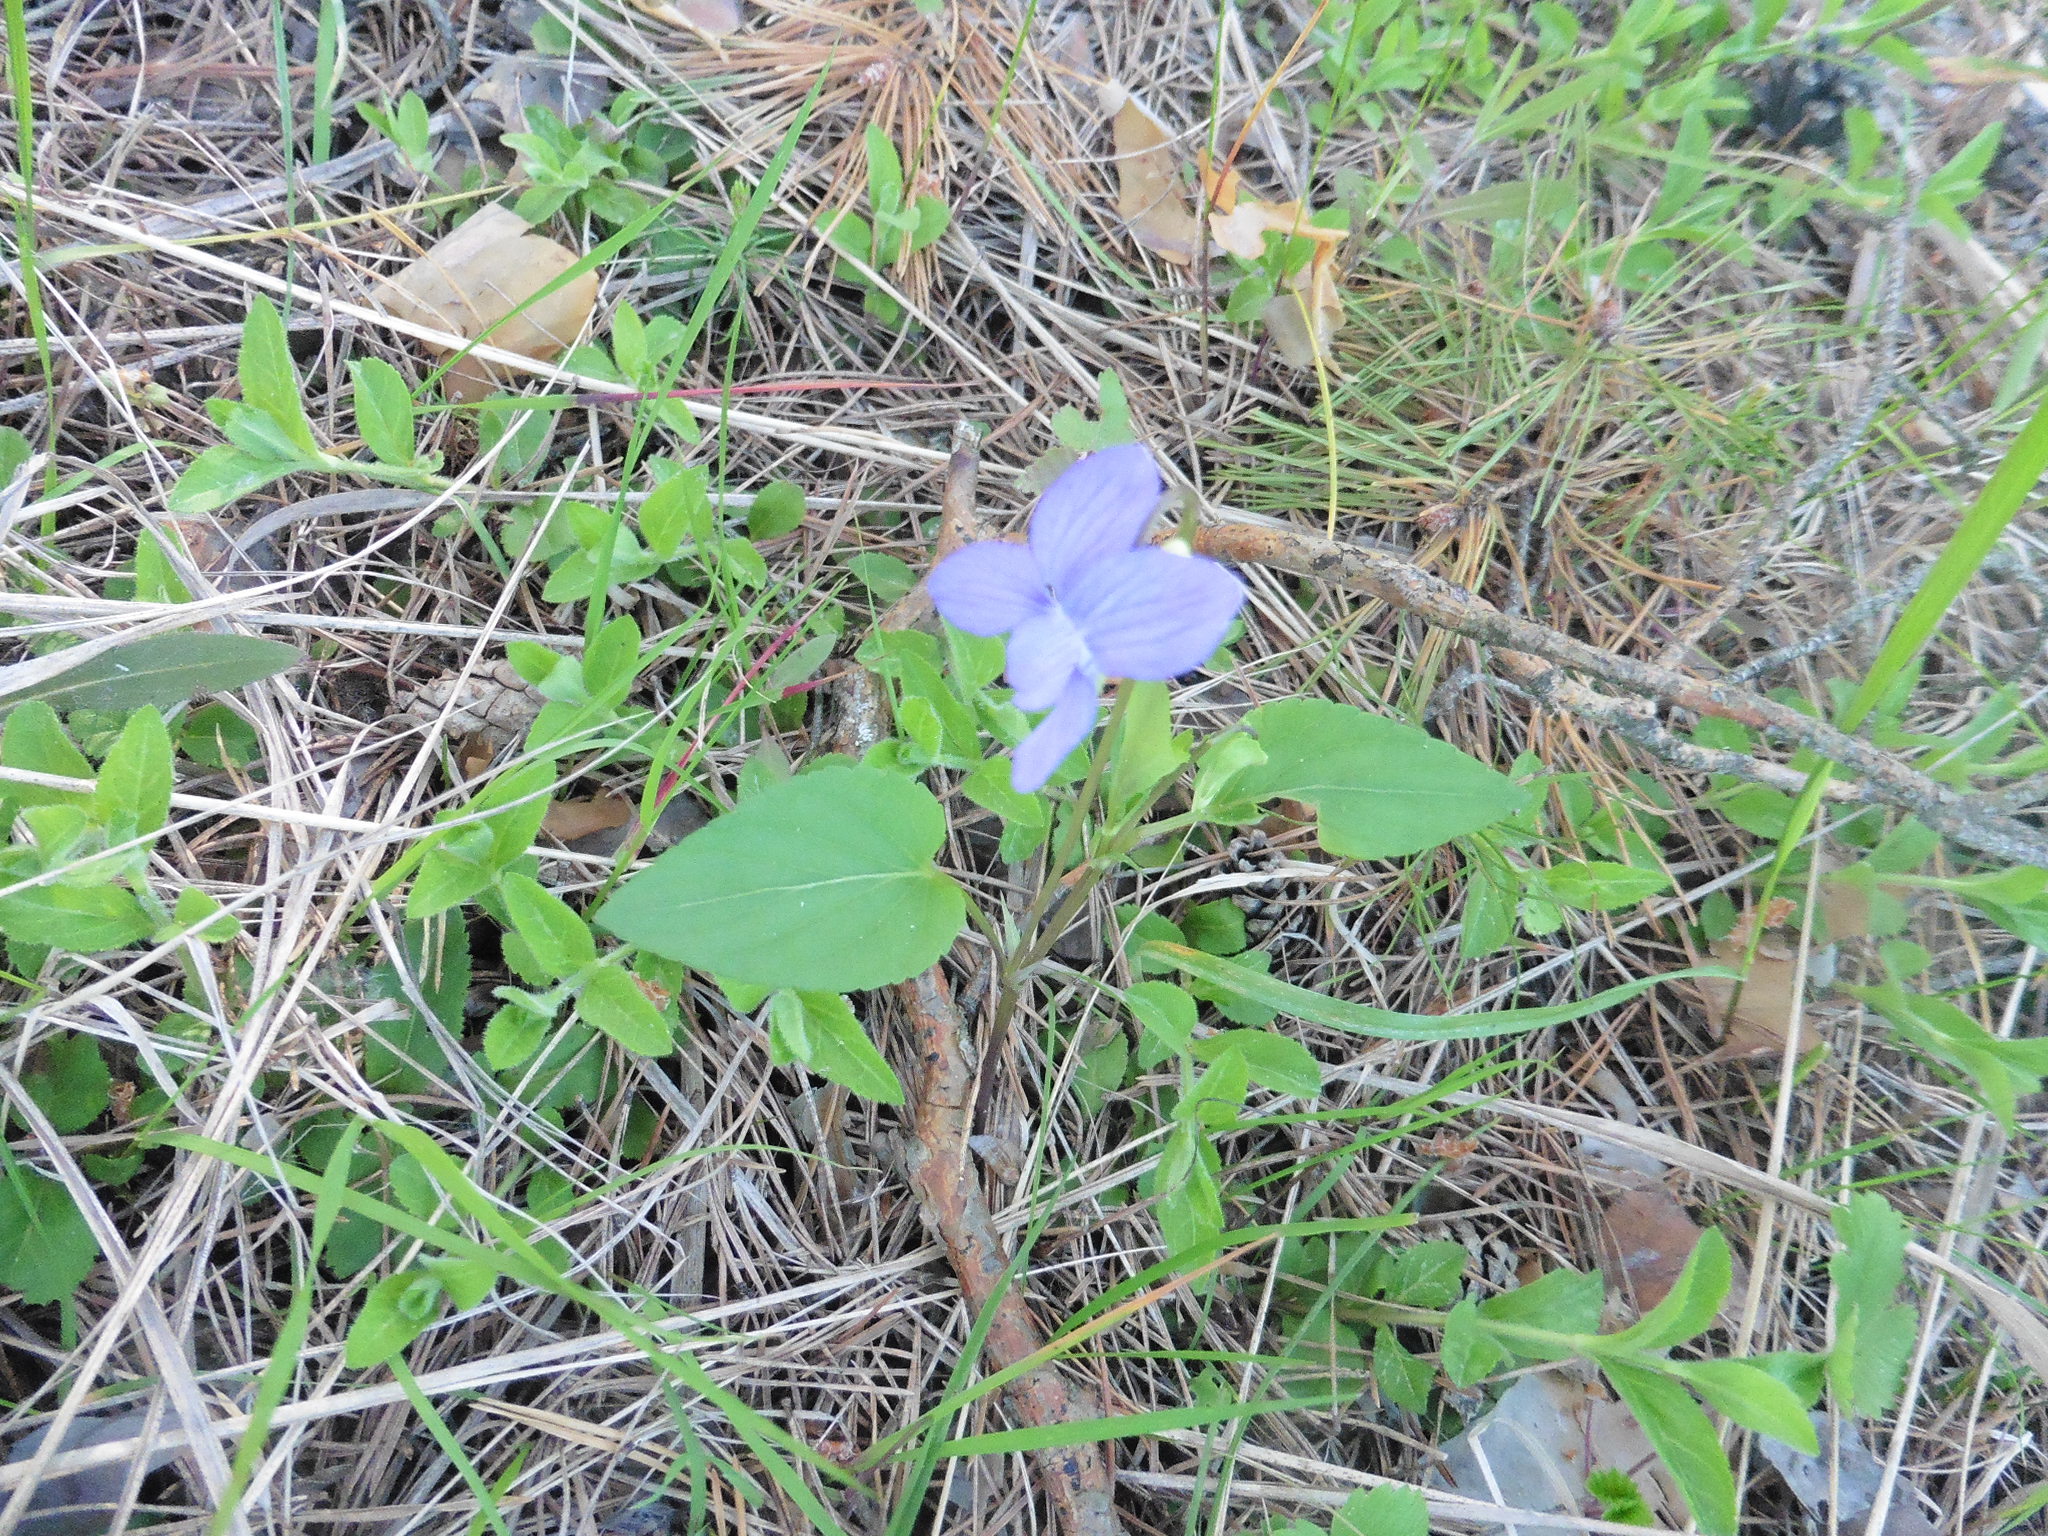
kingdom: Plantae
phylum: Tracheophyta
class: Magnoliopsida
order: Malpighiales
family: Violaceae
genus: Viola
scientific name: Viola
